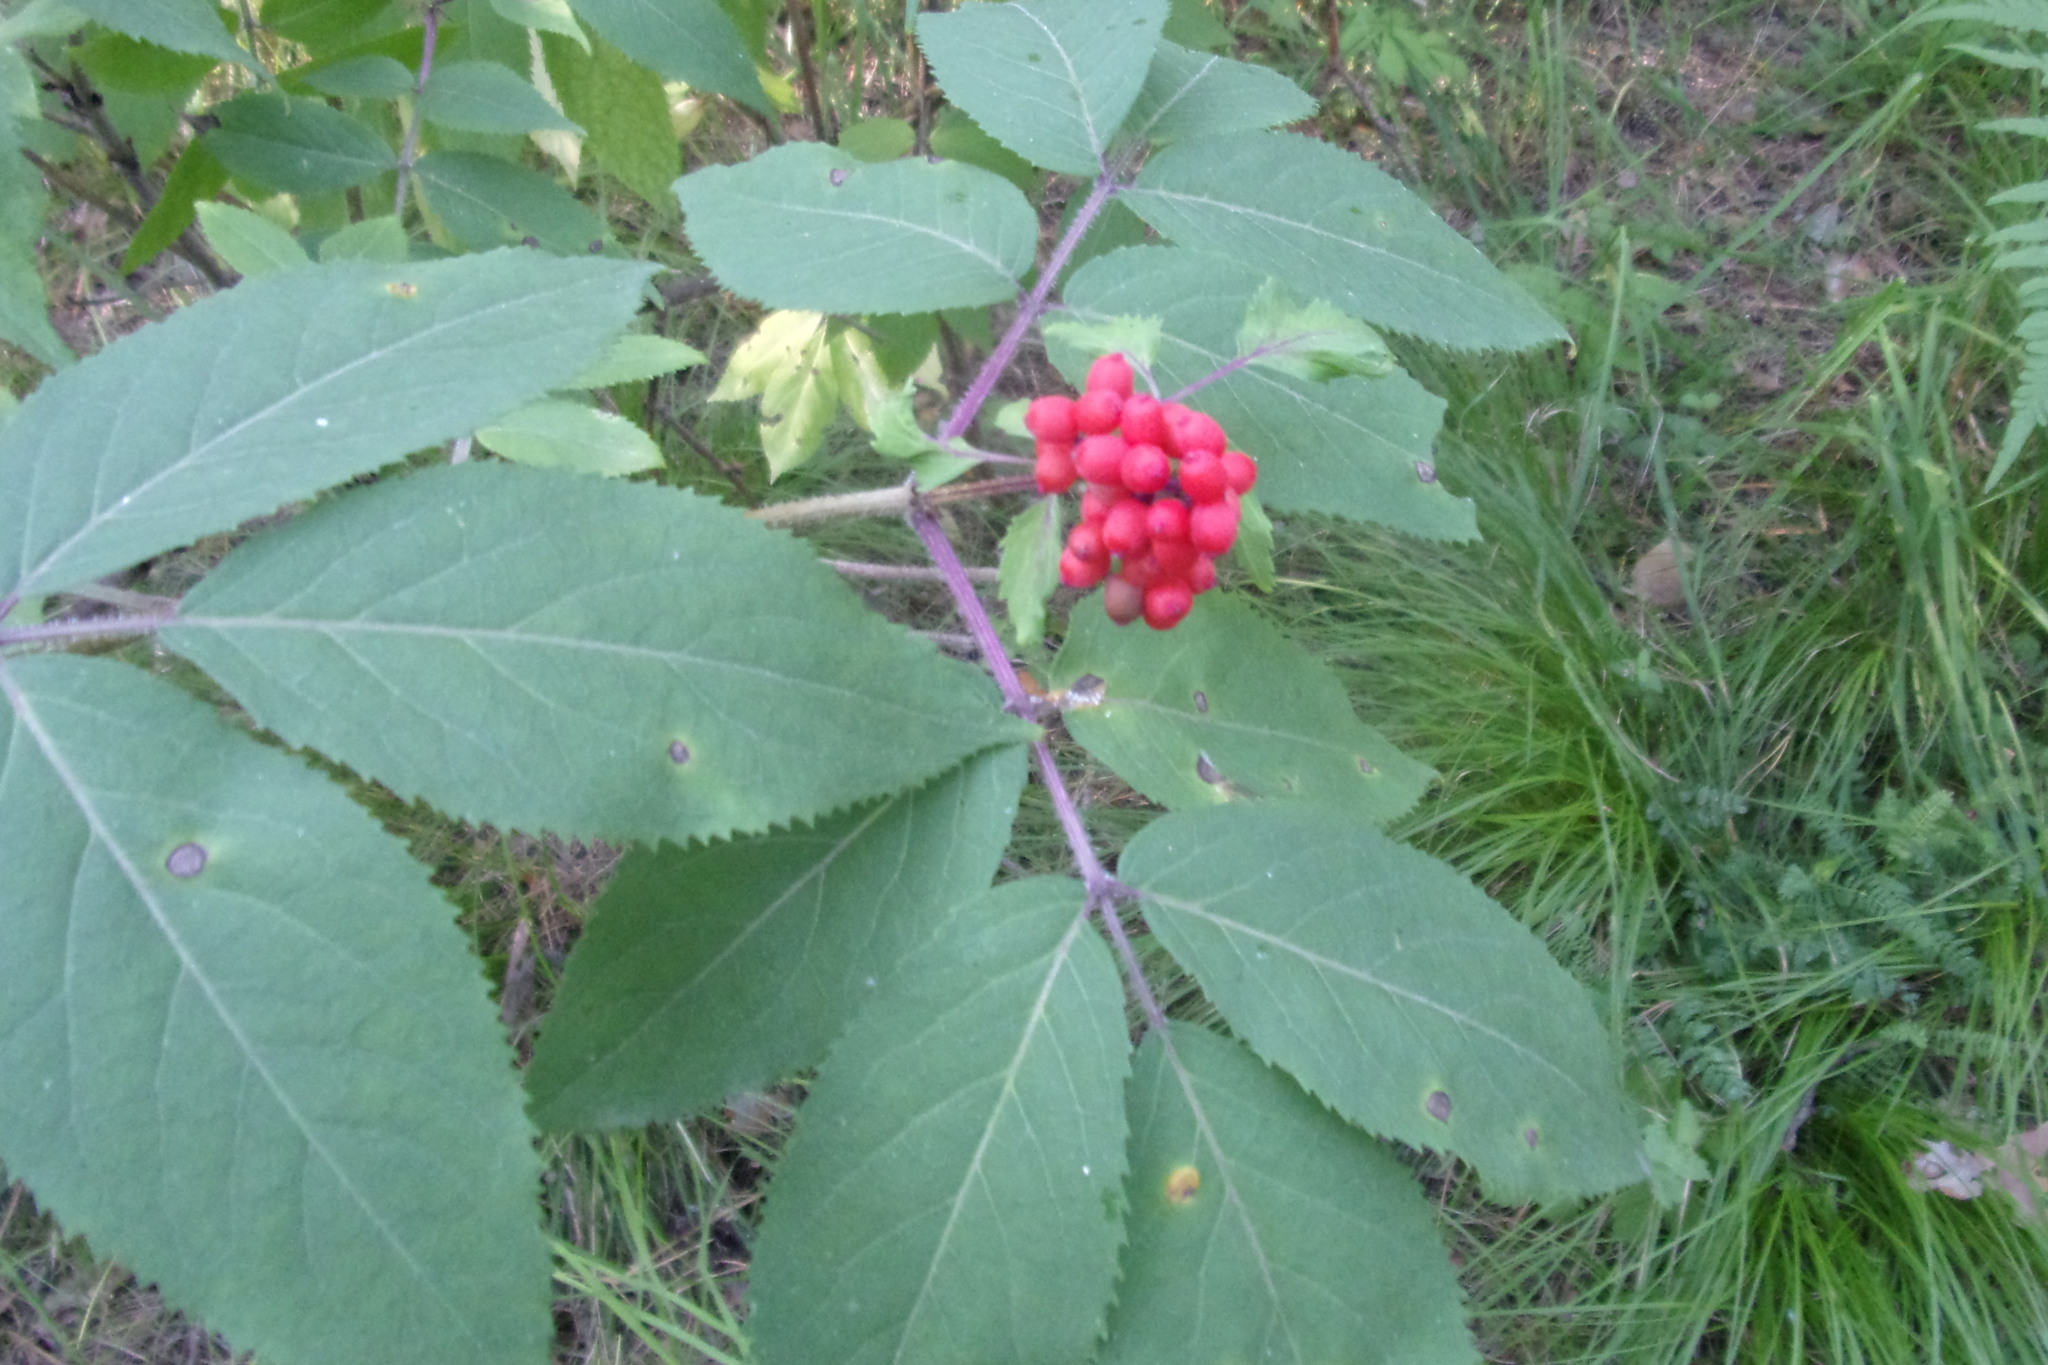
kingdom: Plantae
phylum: Tracheophyta
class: Magnoliopsida
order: Dipsacales
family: Viburnaceae
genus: Sambucus
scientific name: Sambucus racemosa
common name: Red-berried elder
